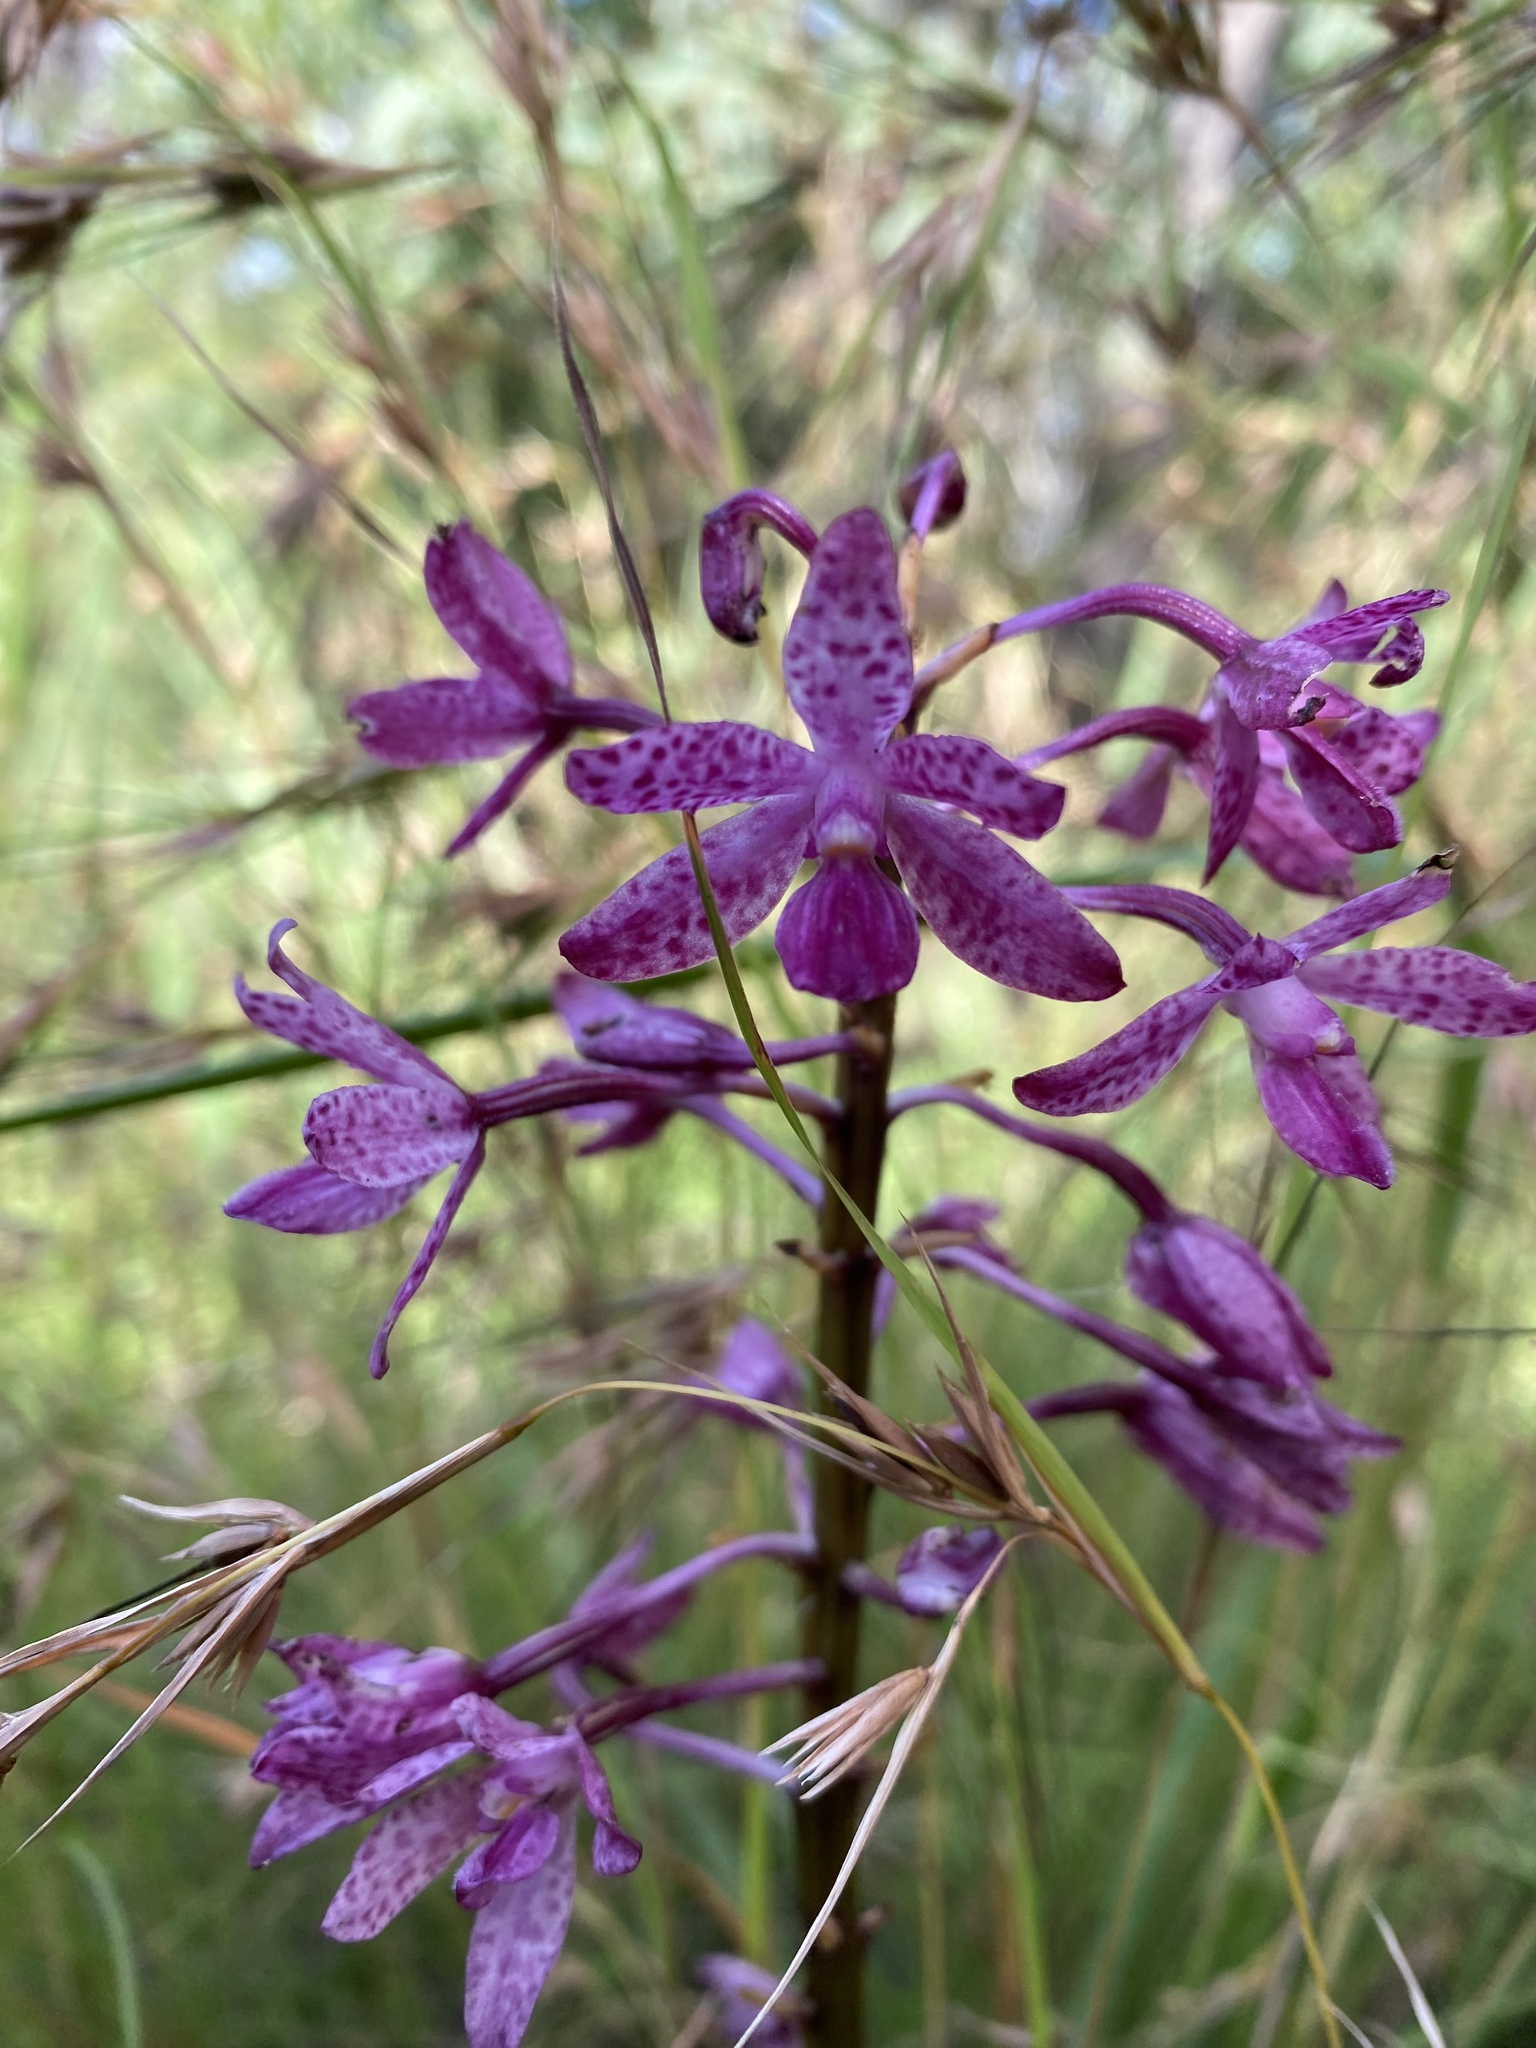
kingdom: Plantae
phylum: Tracheophyta
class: Liliopsida
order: Asparagales
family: Orchidaceae
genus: Dipodium
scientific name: Dipodium squamatum
